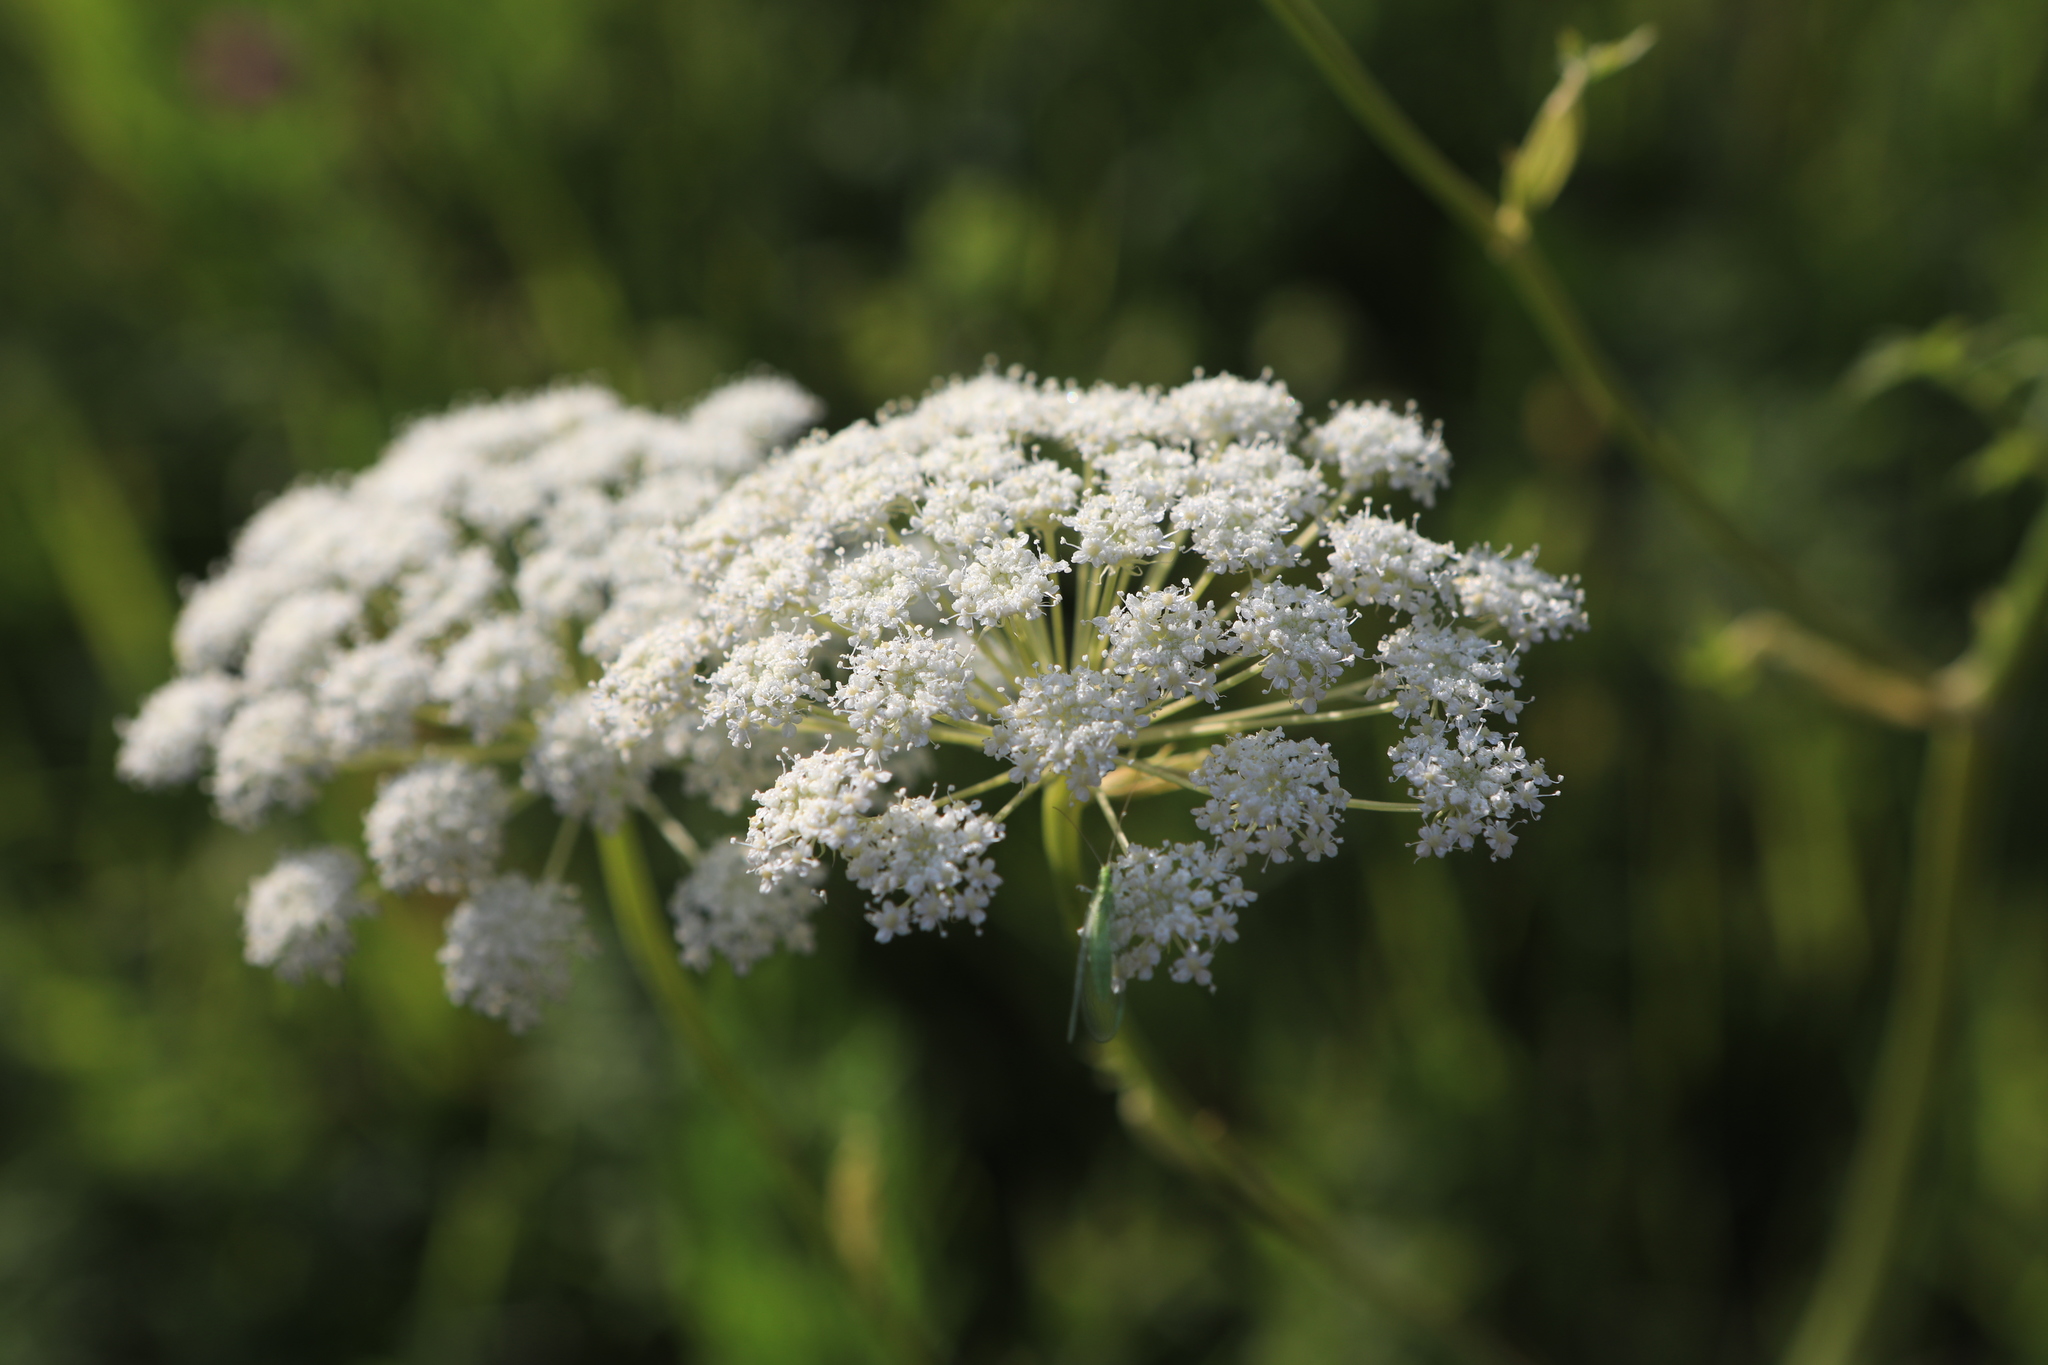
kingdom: Plantae
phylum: Tracheophyta
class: Magnoliopsida
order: Apiales
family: Apiaceae
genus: Seseli
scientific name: Seseli libanotis
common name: Mooncarrot
